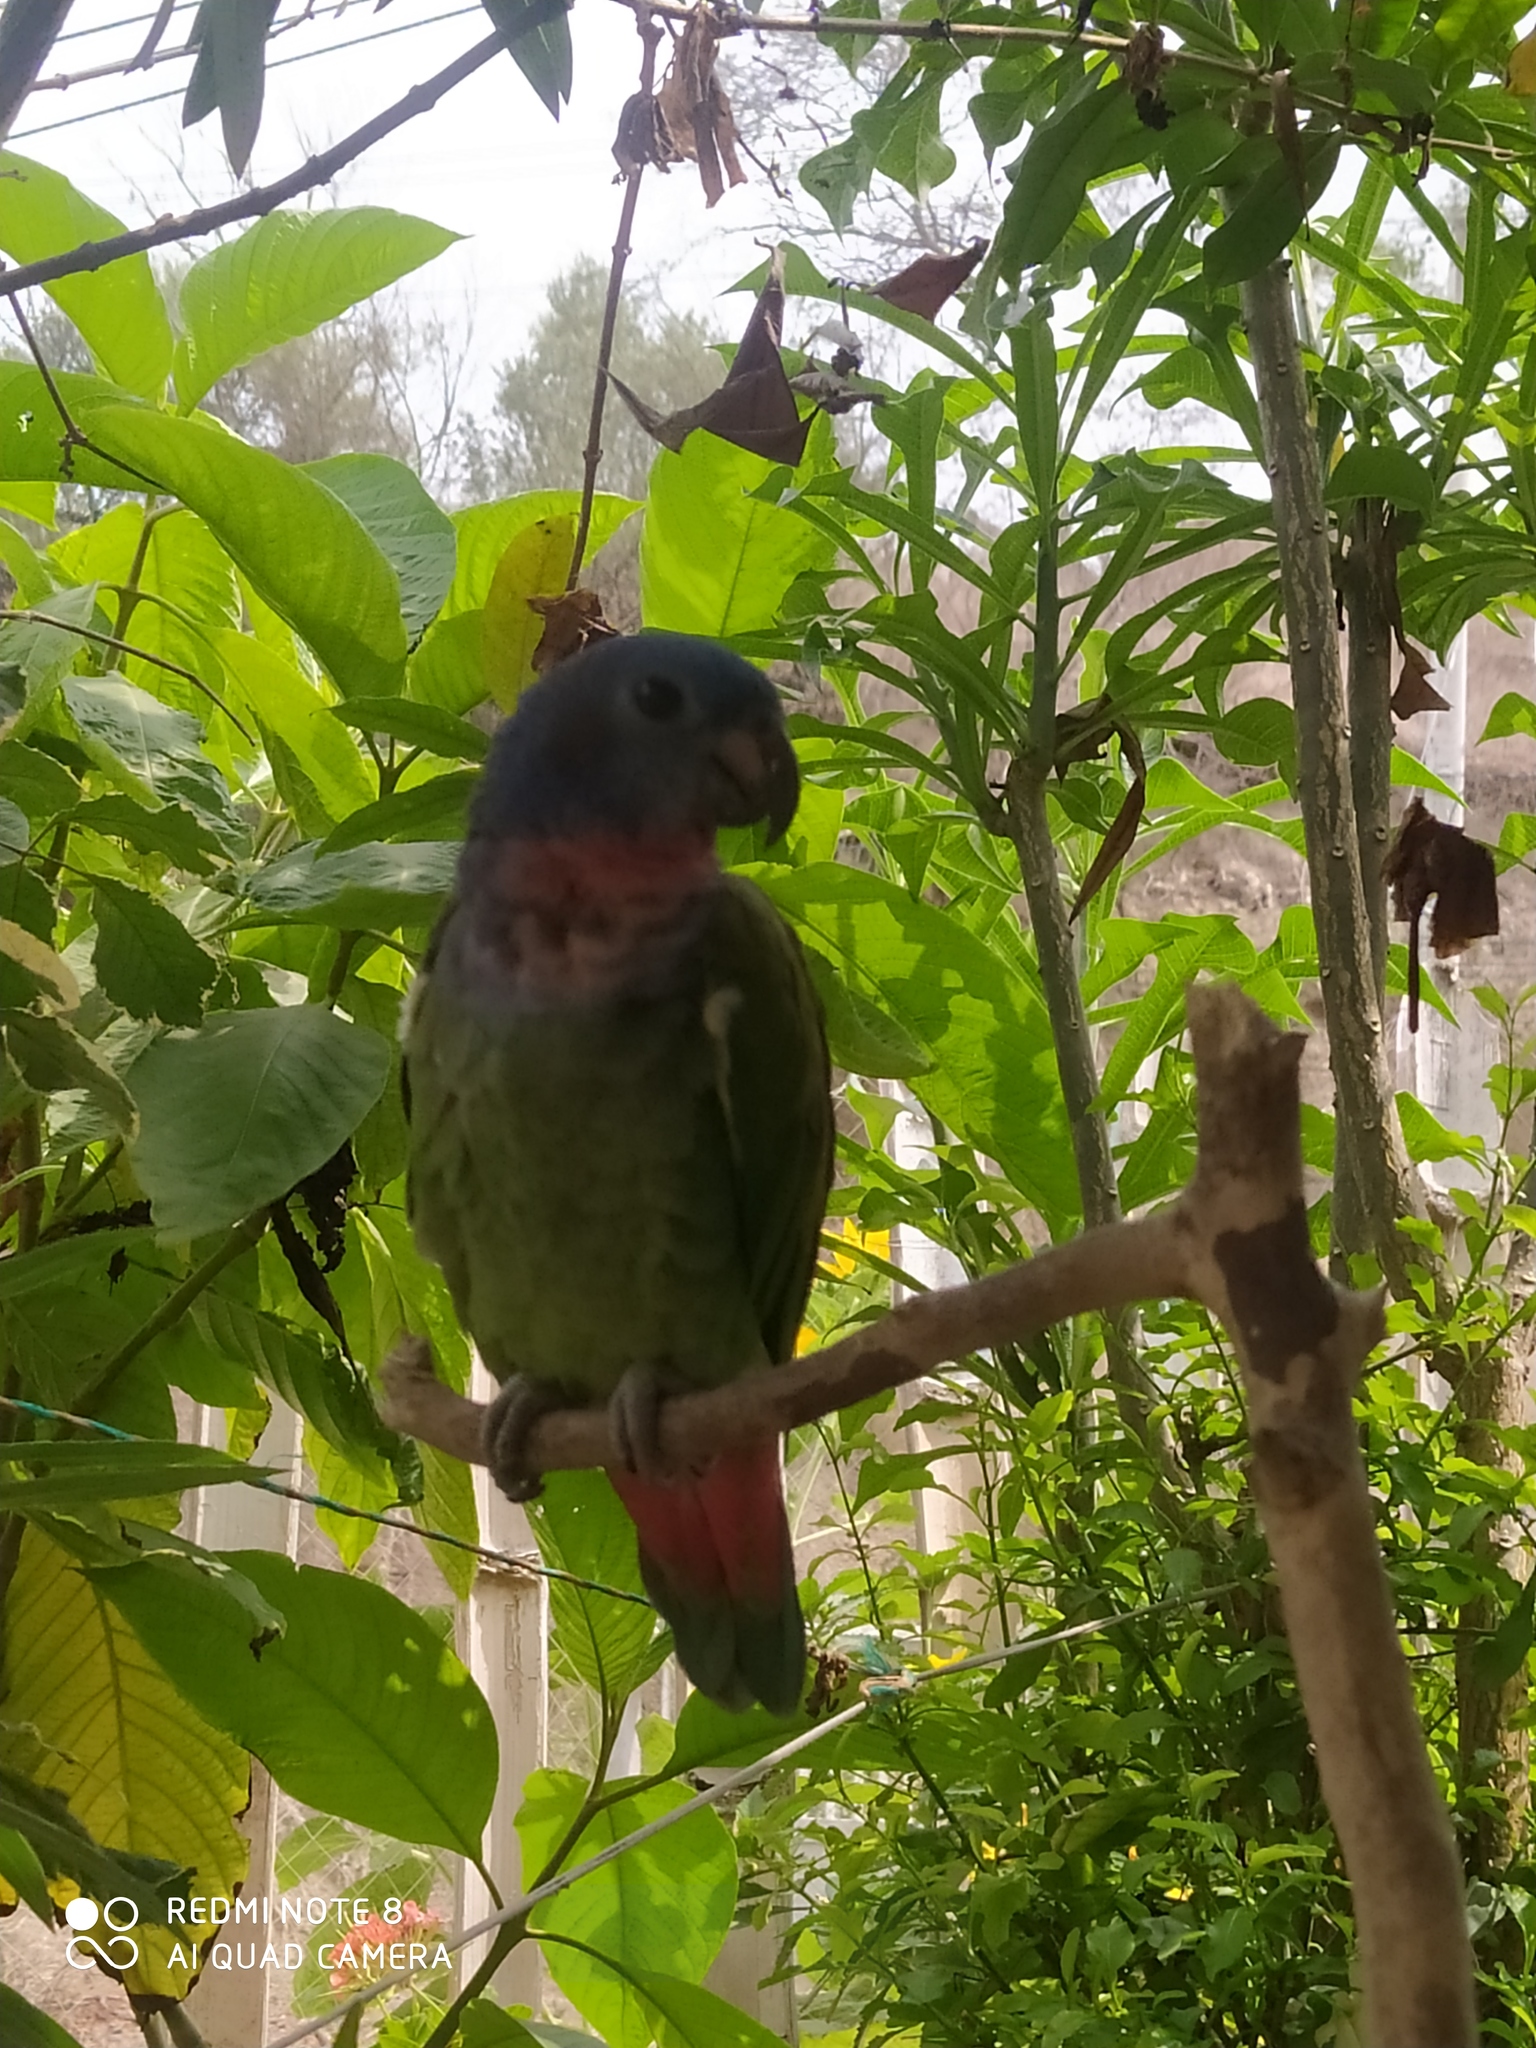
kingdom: Animalia
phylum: Chordata
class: Aves
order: Psittaciformes
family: Psittacidae
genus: Pionus
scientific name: Pionus menstruus
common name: Blue-headed parrot
